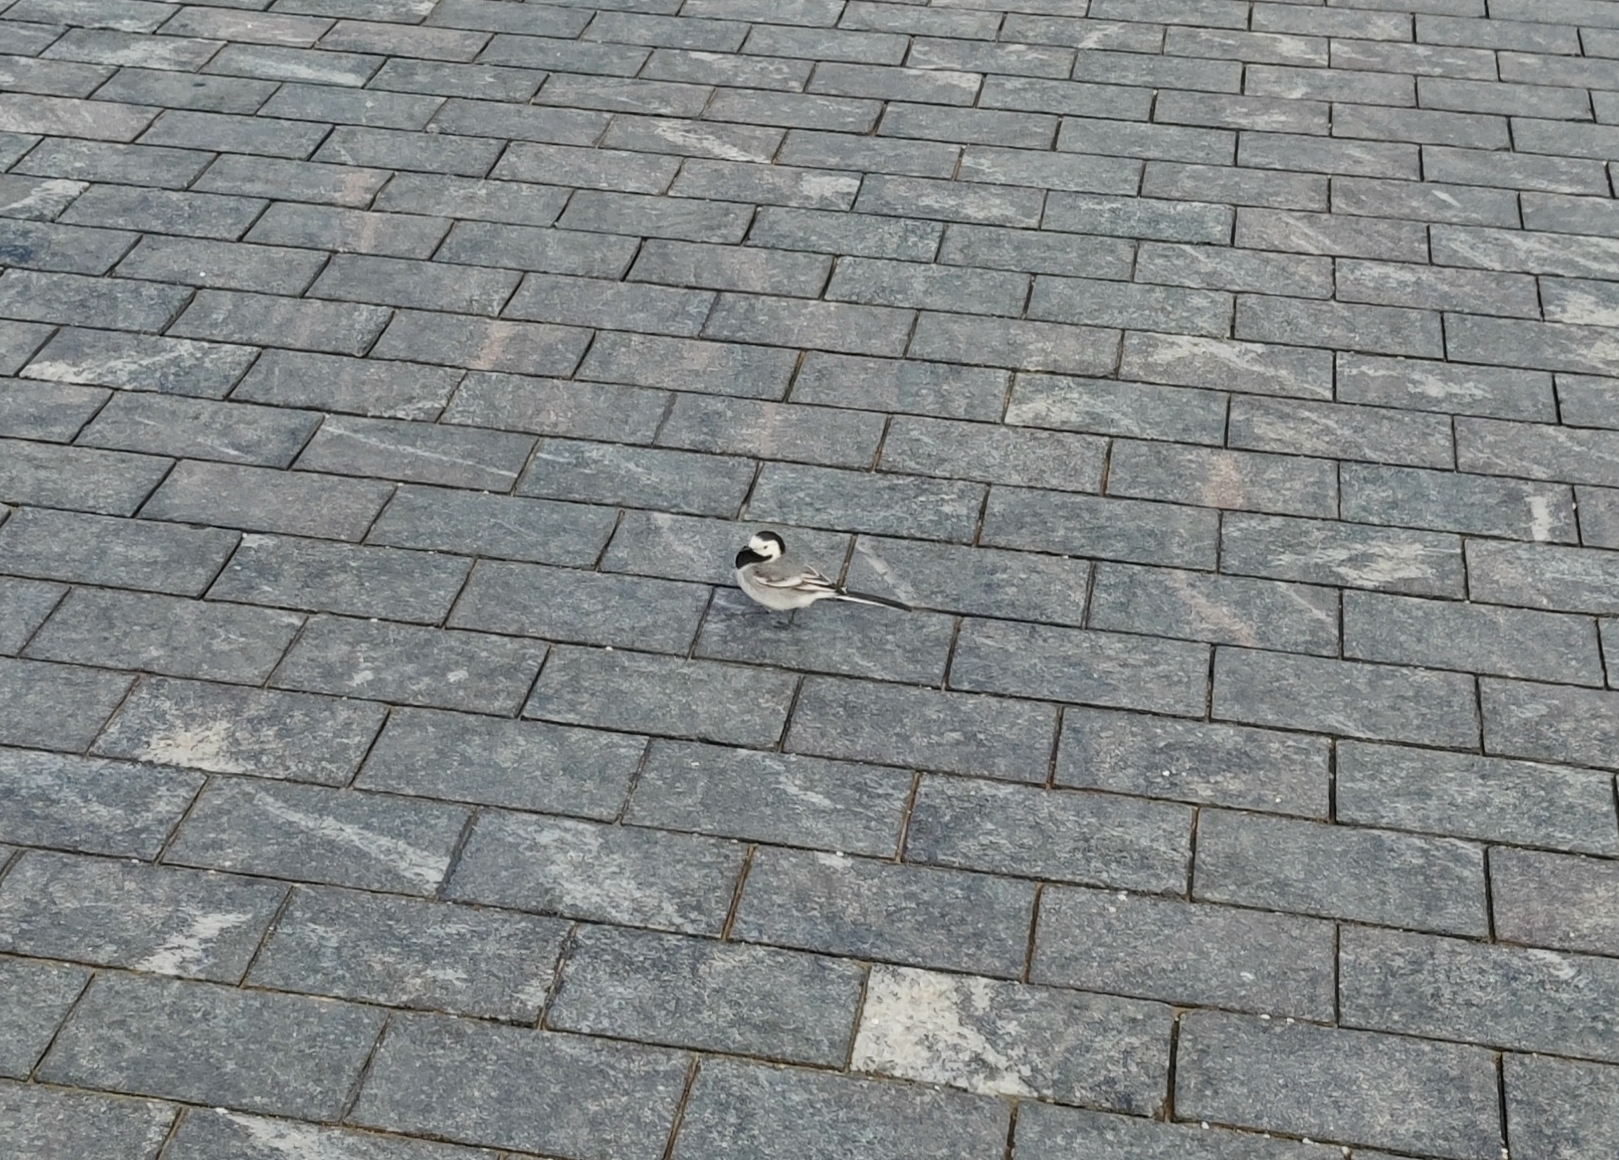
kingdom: Animalia
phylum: Chordata
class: Aves
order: Passeriformes
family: Motacillidae
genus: Motacilla
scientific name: Motacilla alba
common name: White wagtail
